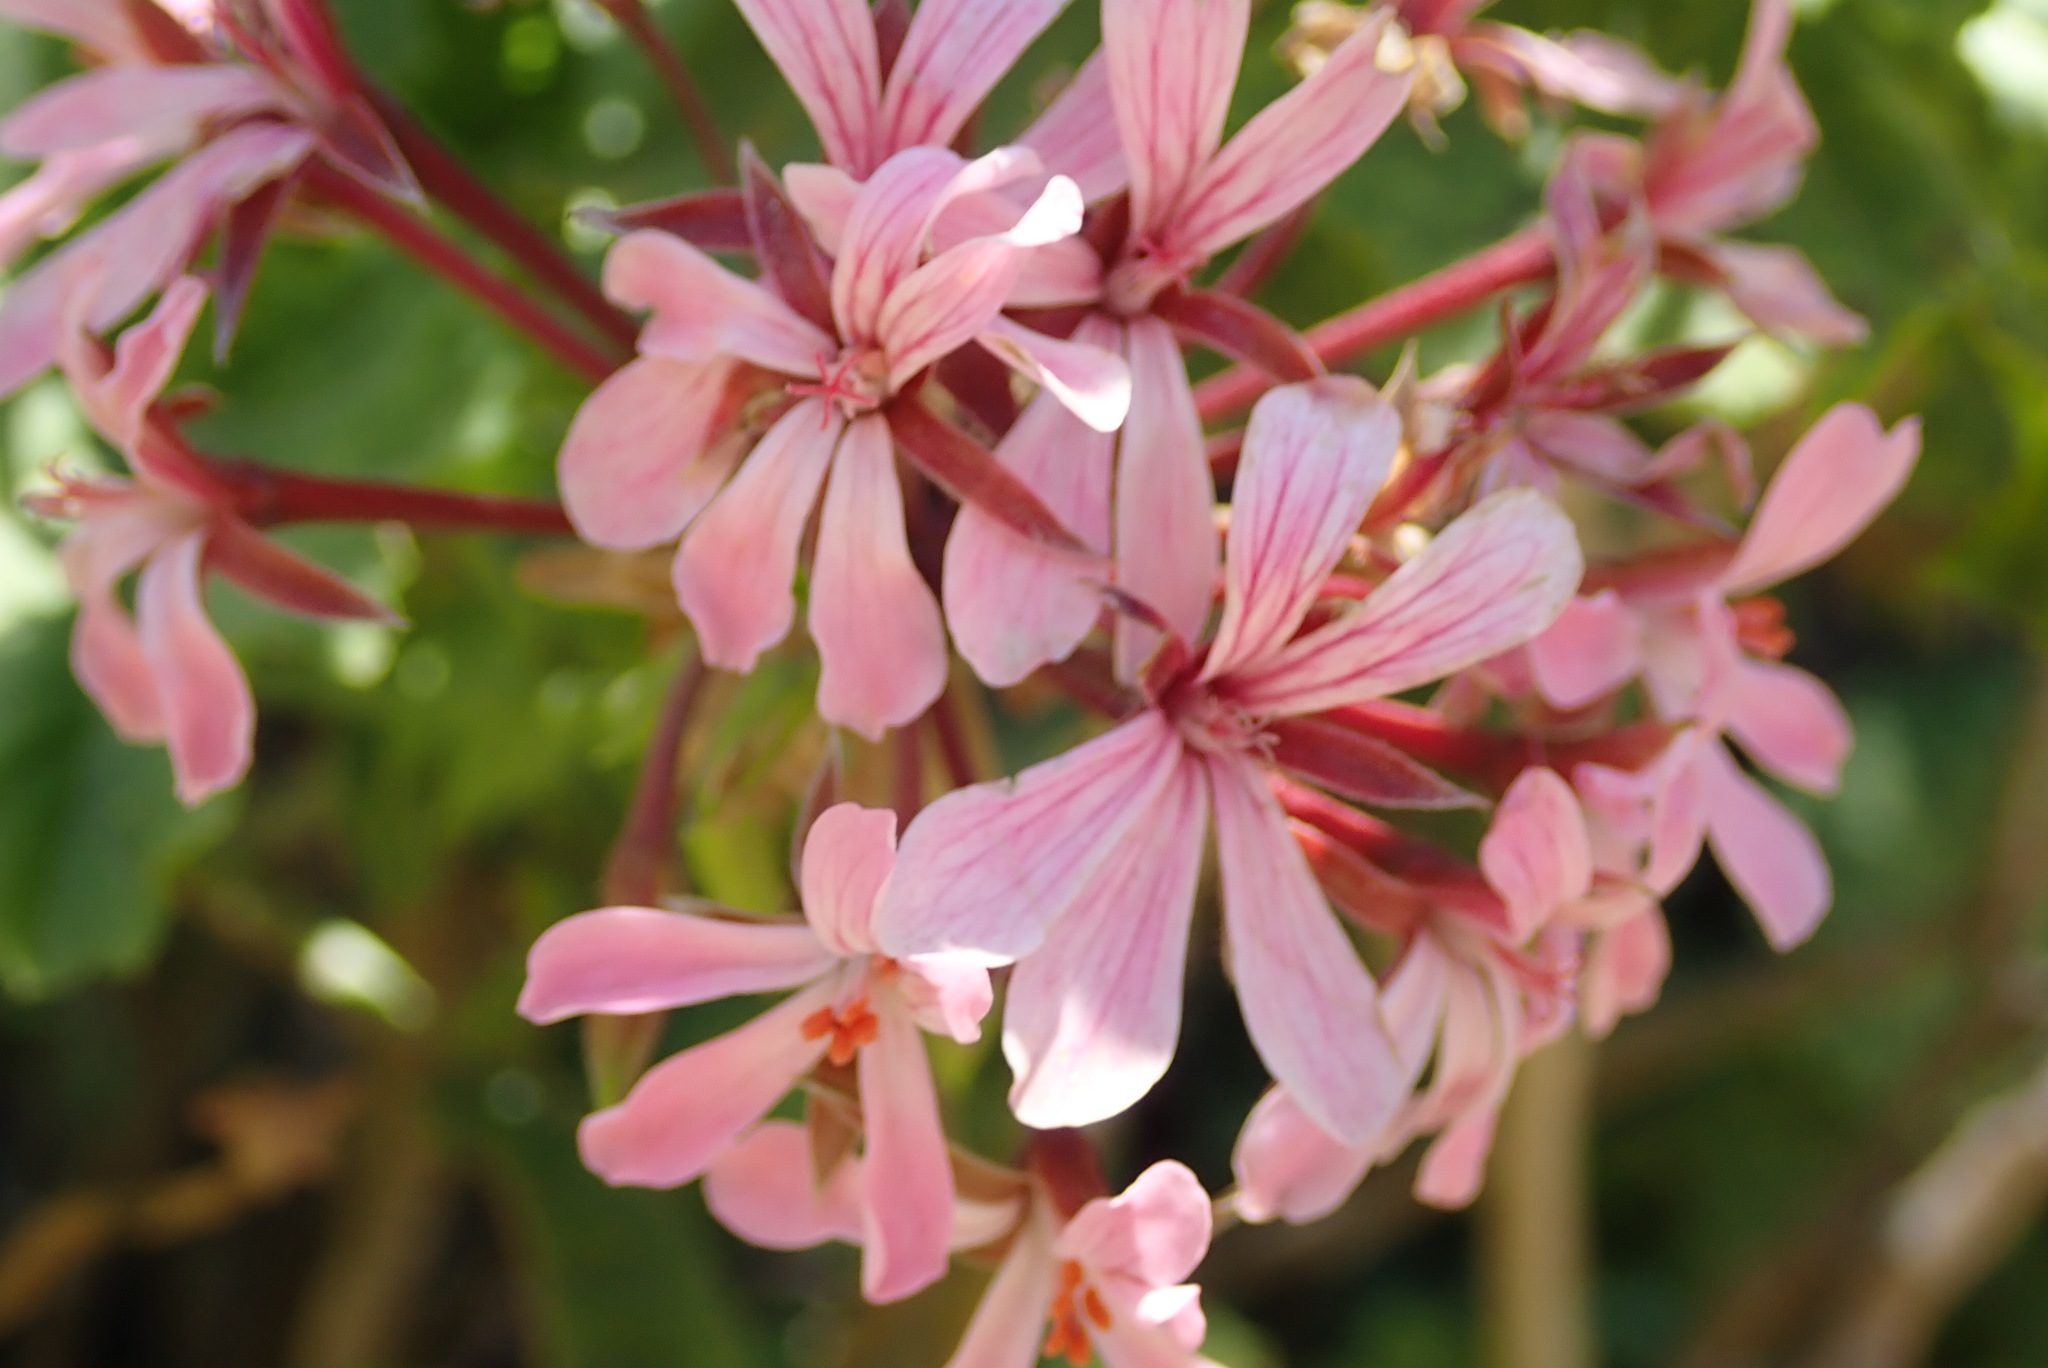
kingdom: Plantae
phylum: Tracheophyta
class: Magnoliopsida
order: Geraniales
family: Geraniaceae
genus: Pelargonium
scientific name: Pelargonium zonale
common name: Horseshoe geranium
